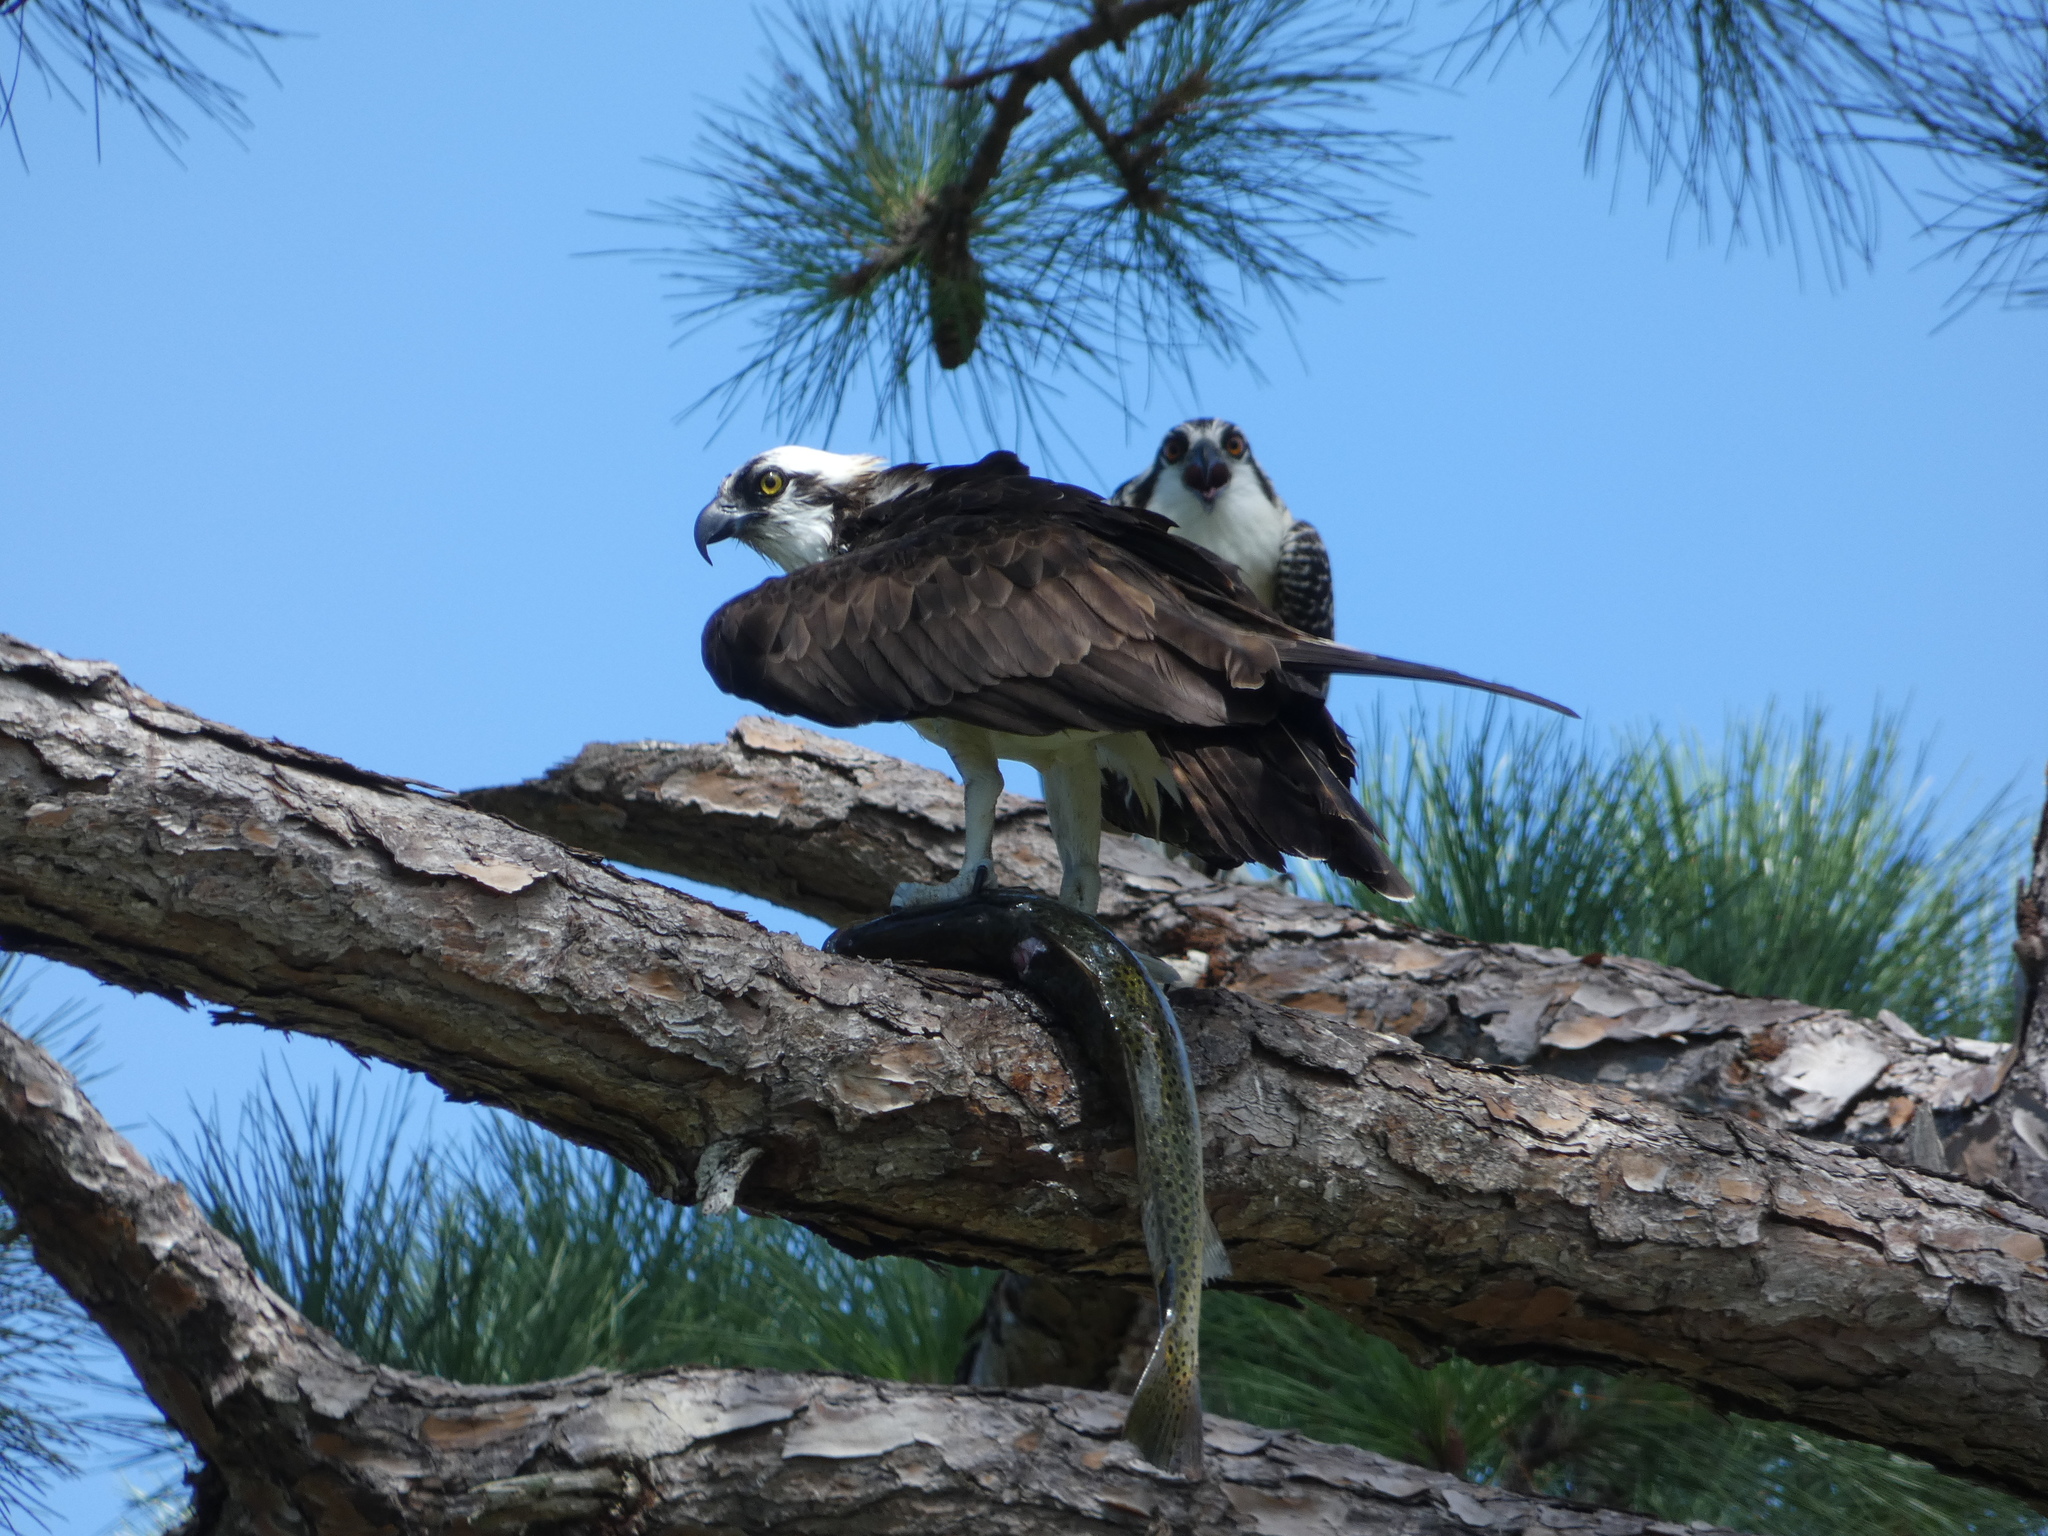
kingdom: Animalia
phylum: Chordata
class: Aves
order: Accipitriformes
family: Pandionidae
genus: Pandion
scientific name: Pandion haliaetus
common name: Osprey
